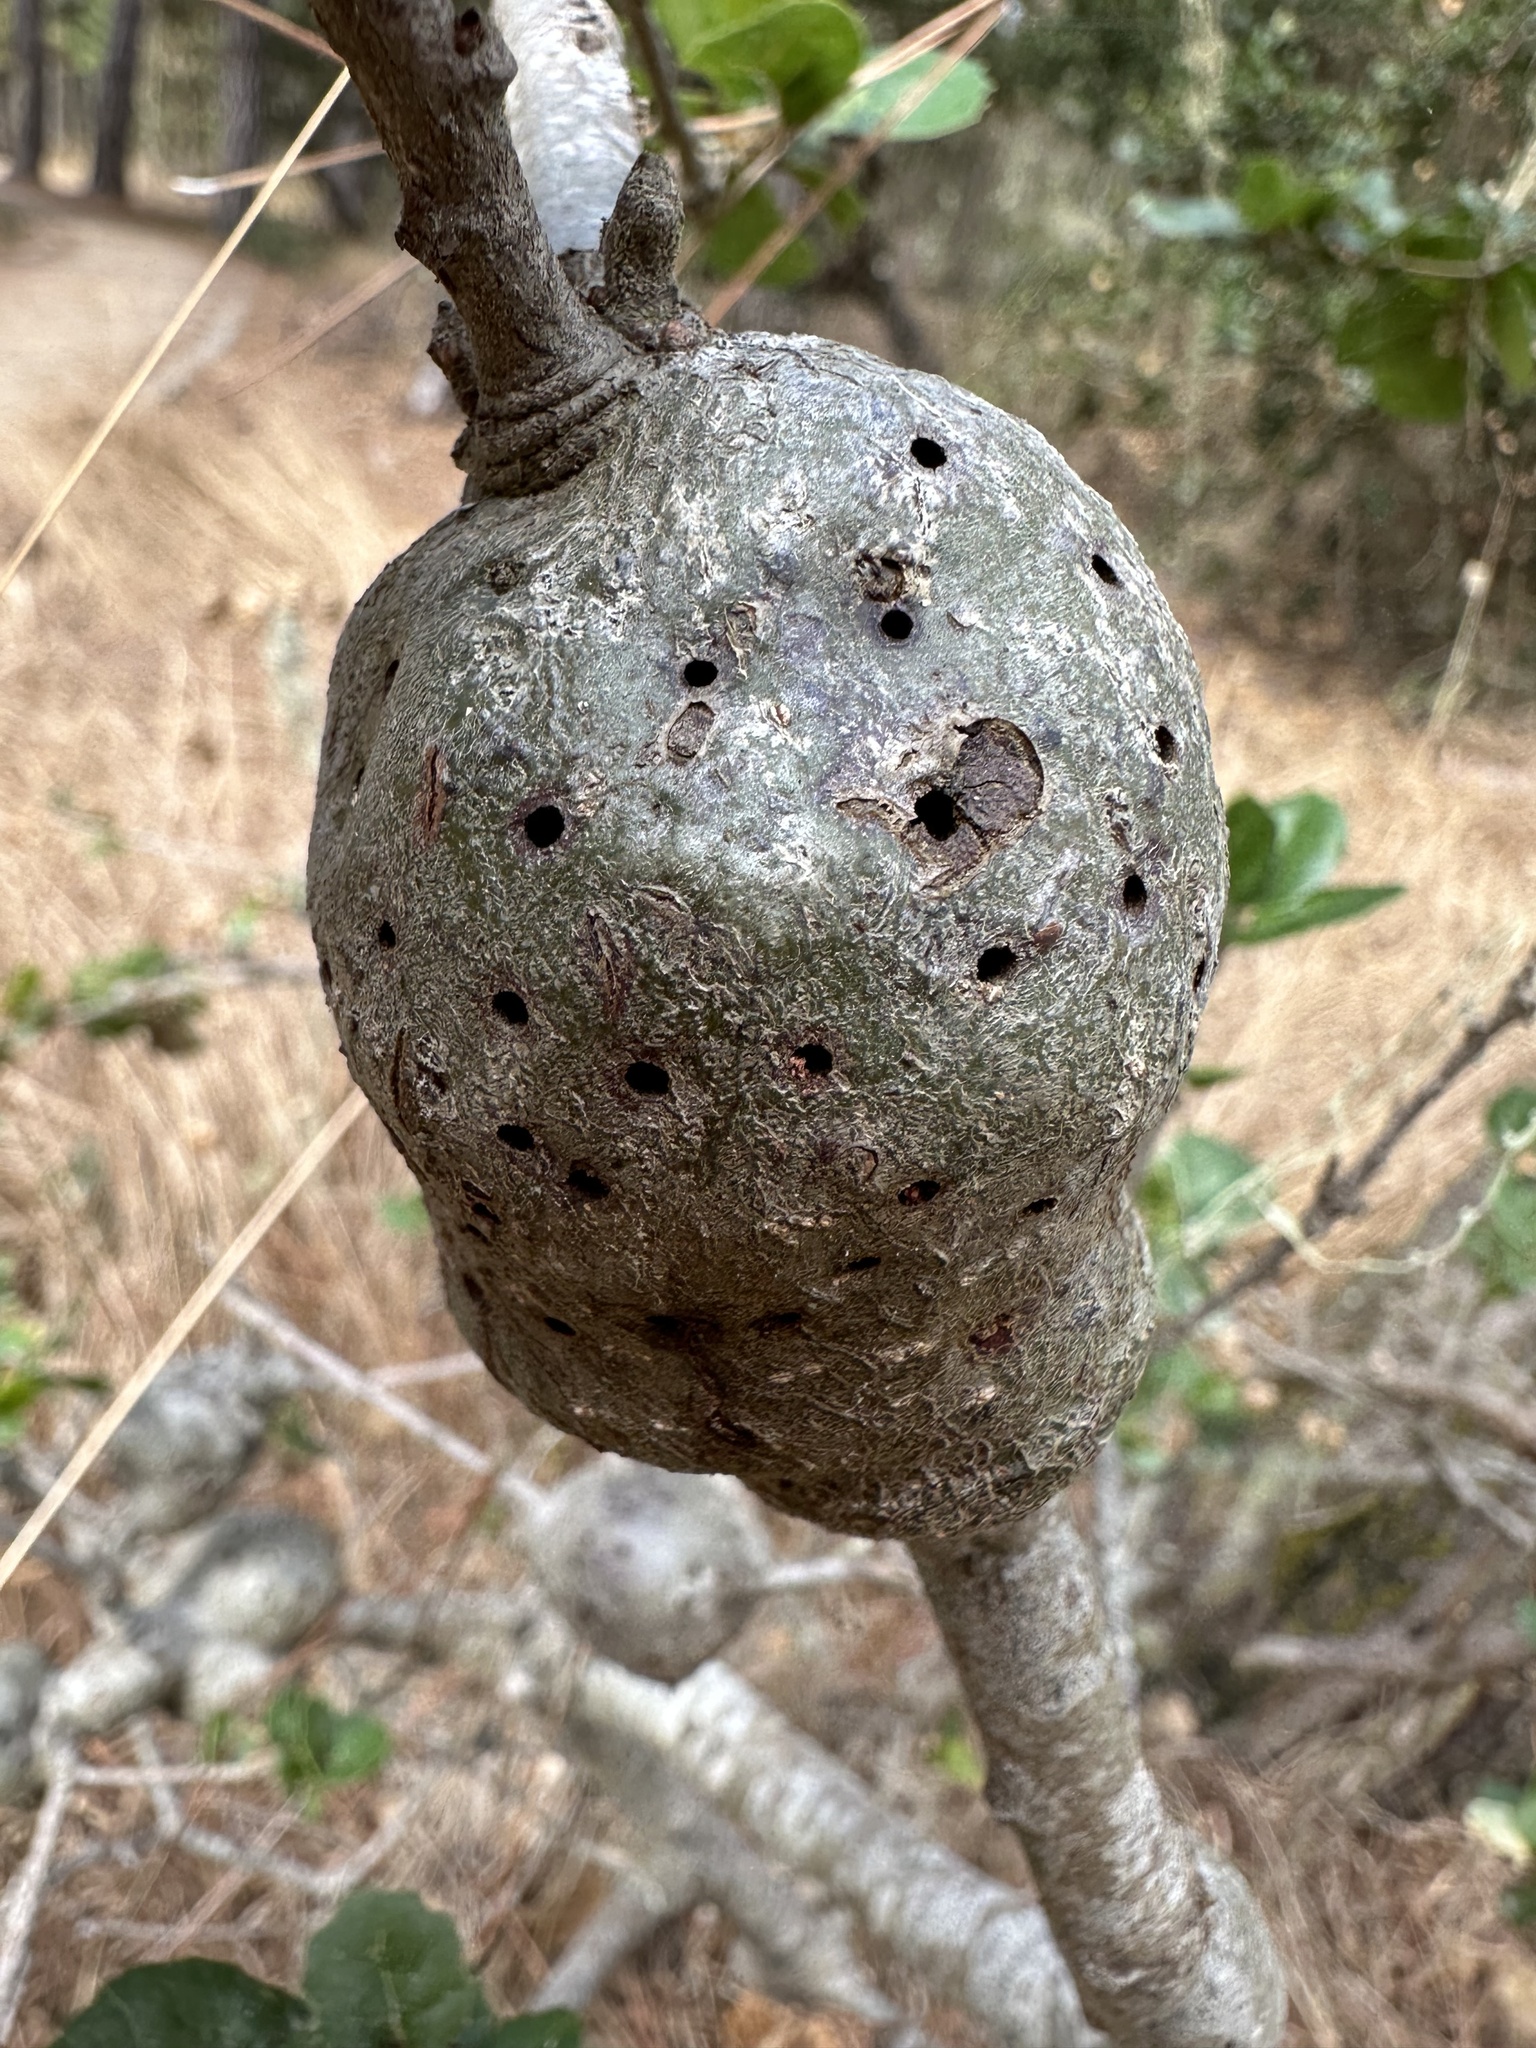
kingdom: Animalia
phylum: Arthropoda
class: Insecta
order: Hymenoptera
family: Cynipidae
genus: Callirhytis
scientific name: Callirhytis
